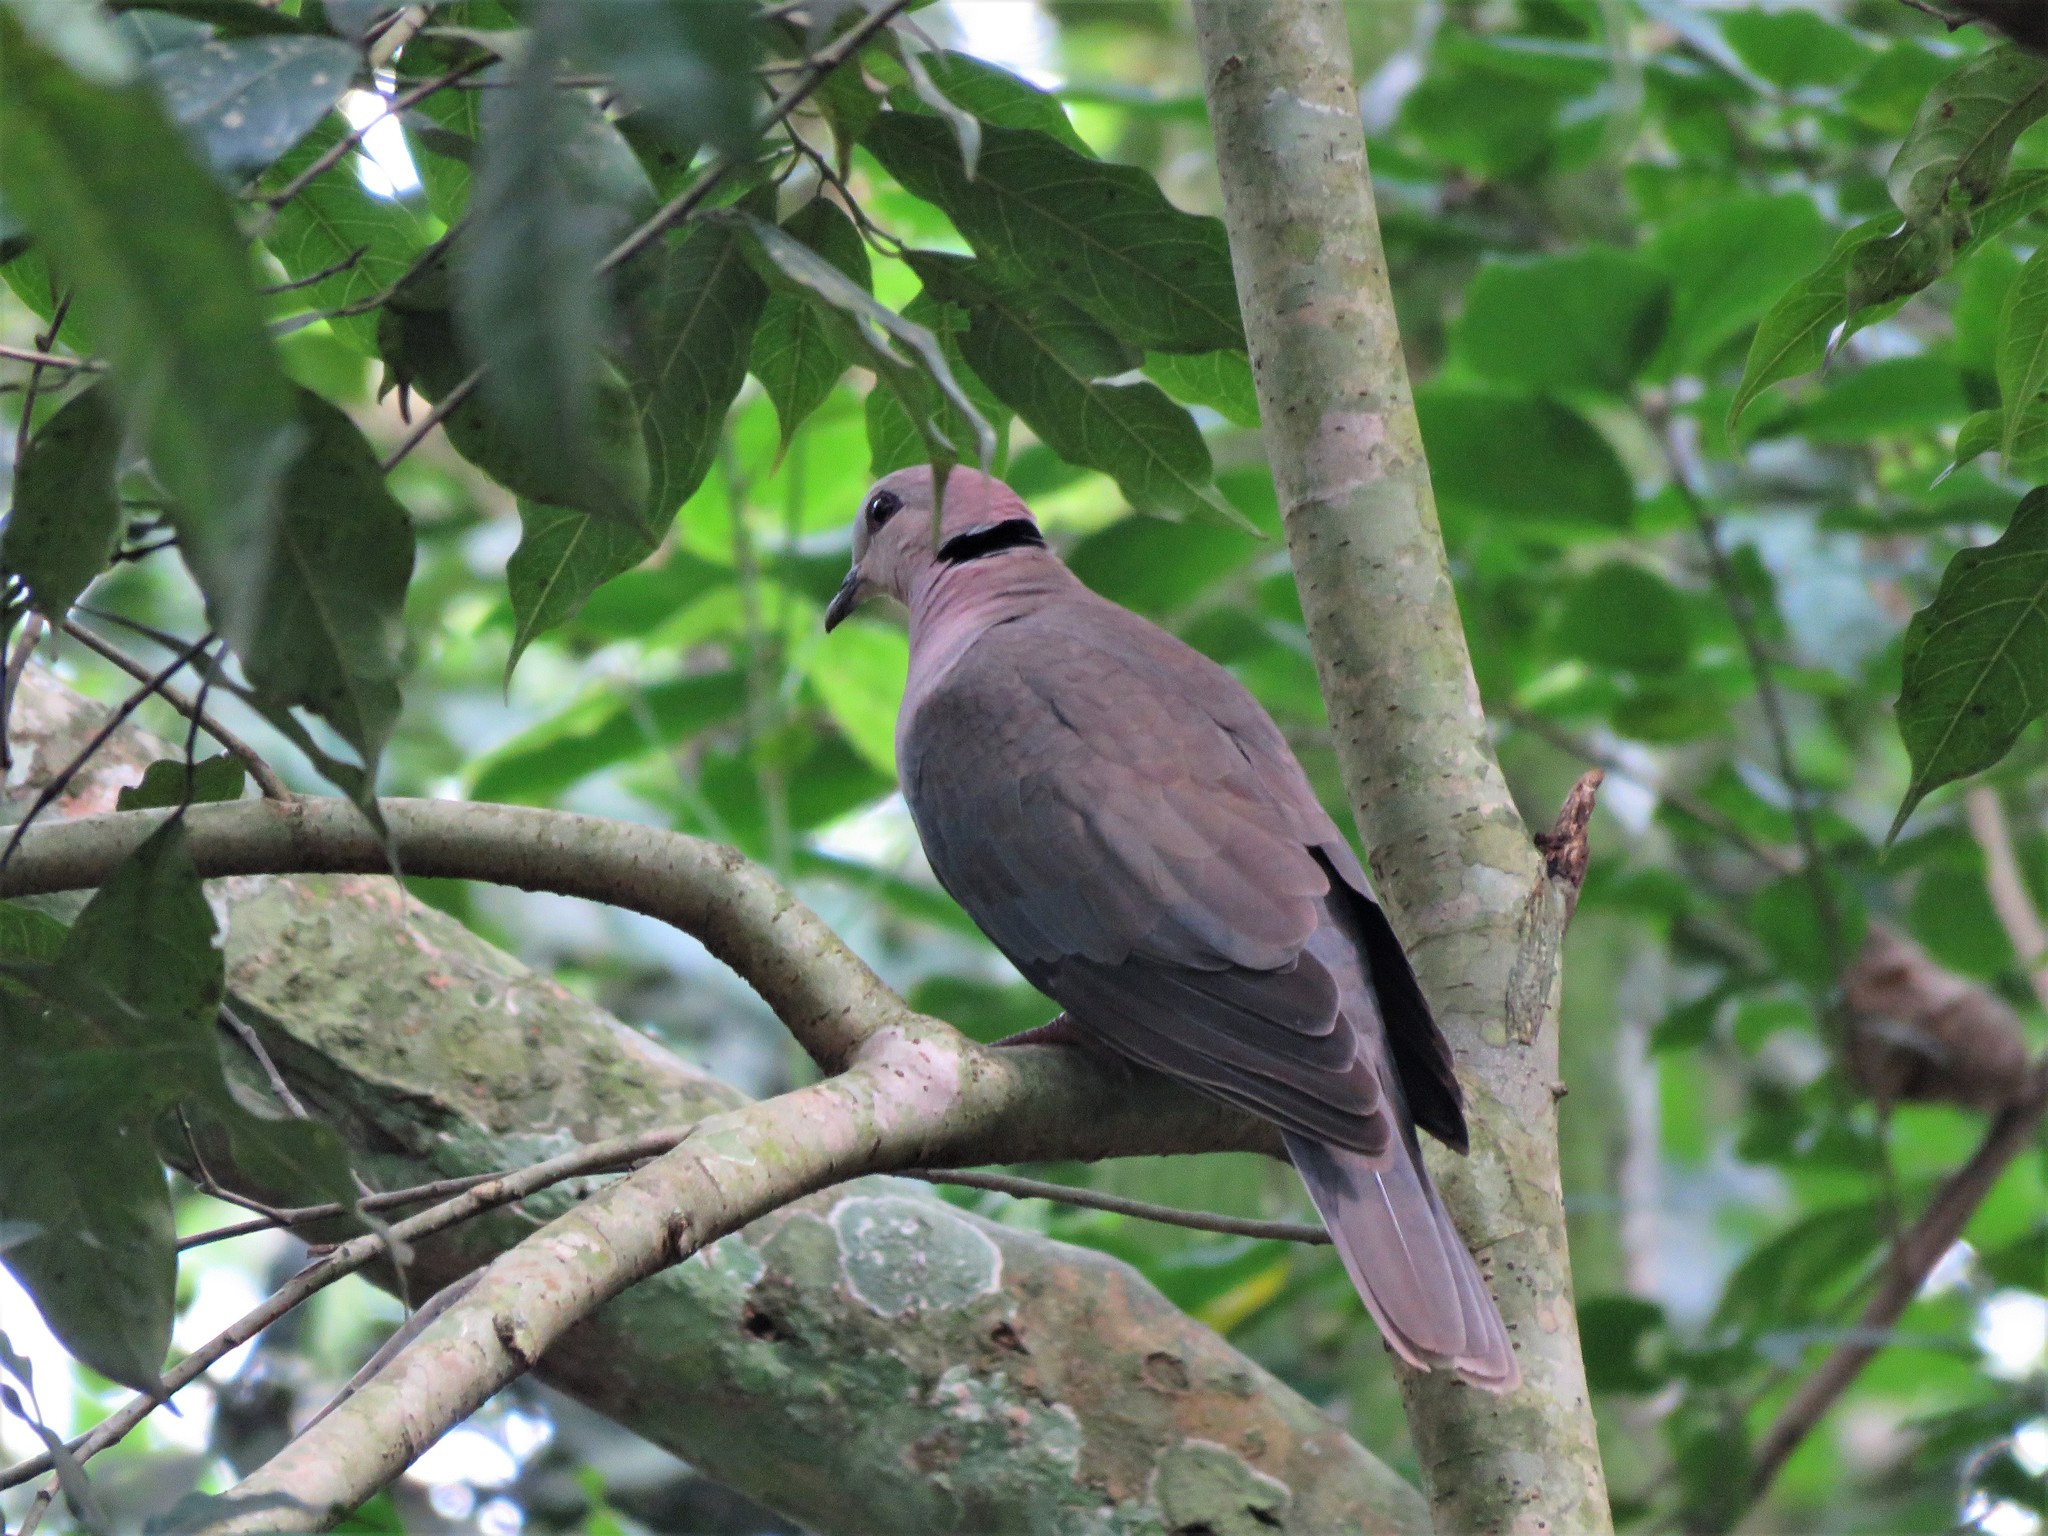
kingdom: Animalia
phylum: Chordata
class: Aves
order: Columbiformes
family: Columbidae
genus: Streptopelia
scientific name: Streptopelia semitorquata
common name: Red-eyed dove
